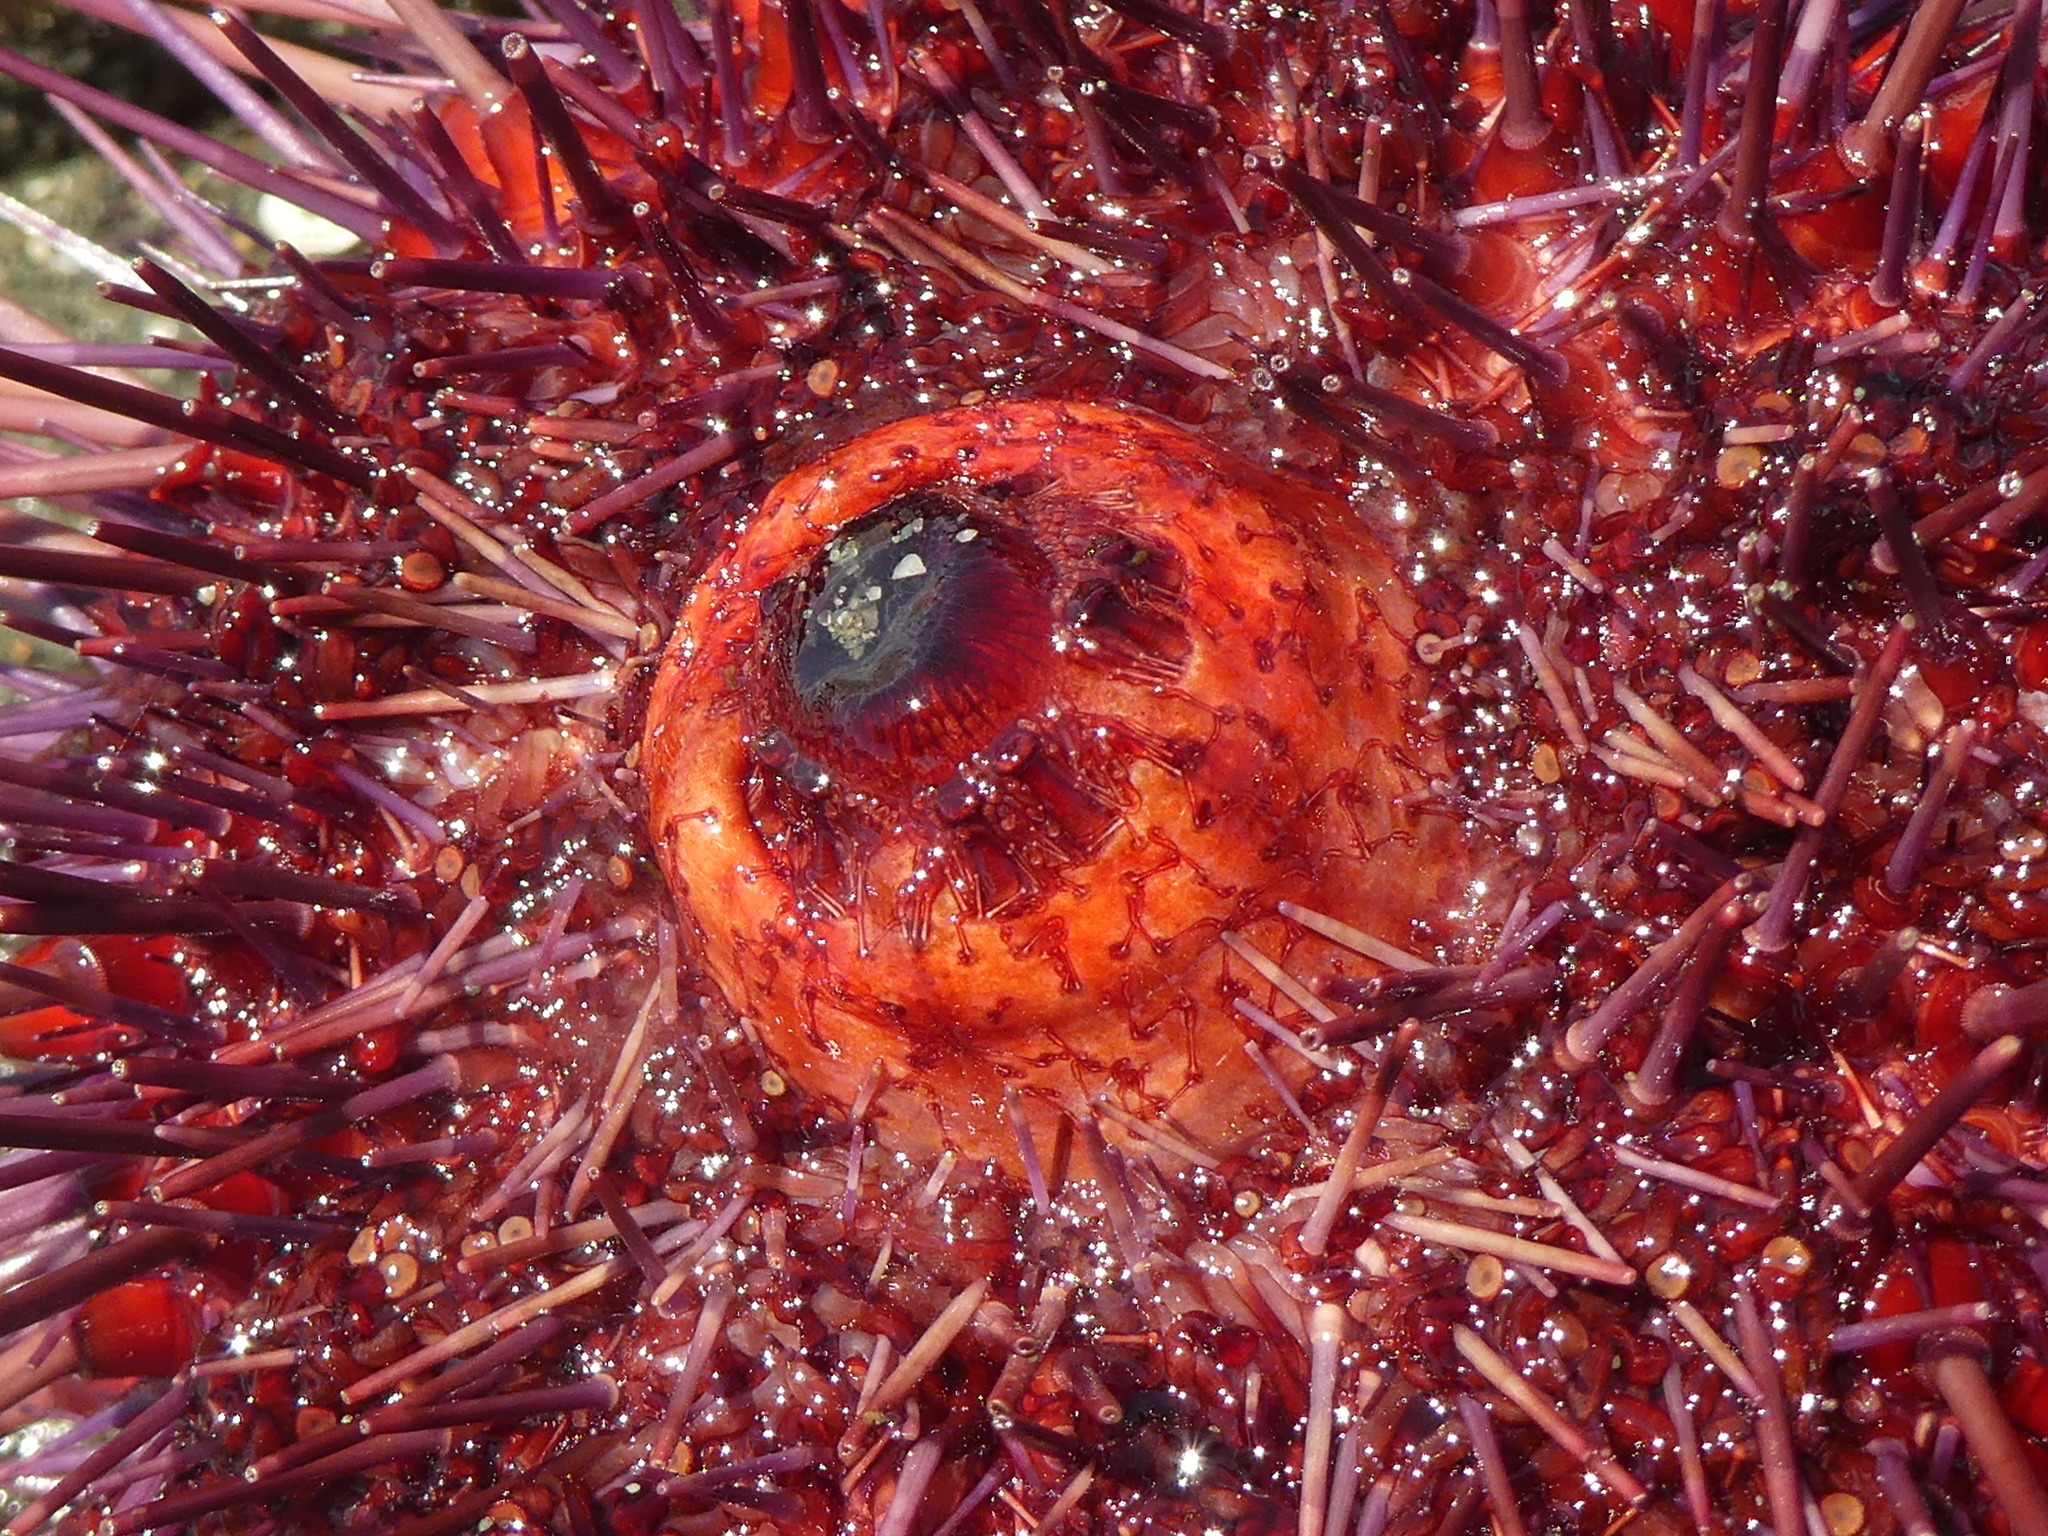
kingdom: Animalia
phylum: Echinodermata
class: Echinoidea
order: Camarodonta
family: Strongylocentrotidae
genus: Mesocentrotus
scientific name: Mesocentrotus franciscanus
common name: Red sea urchin
